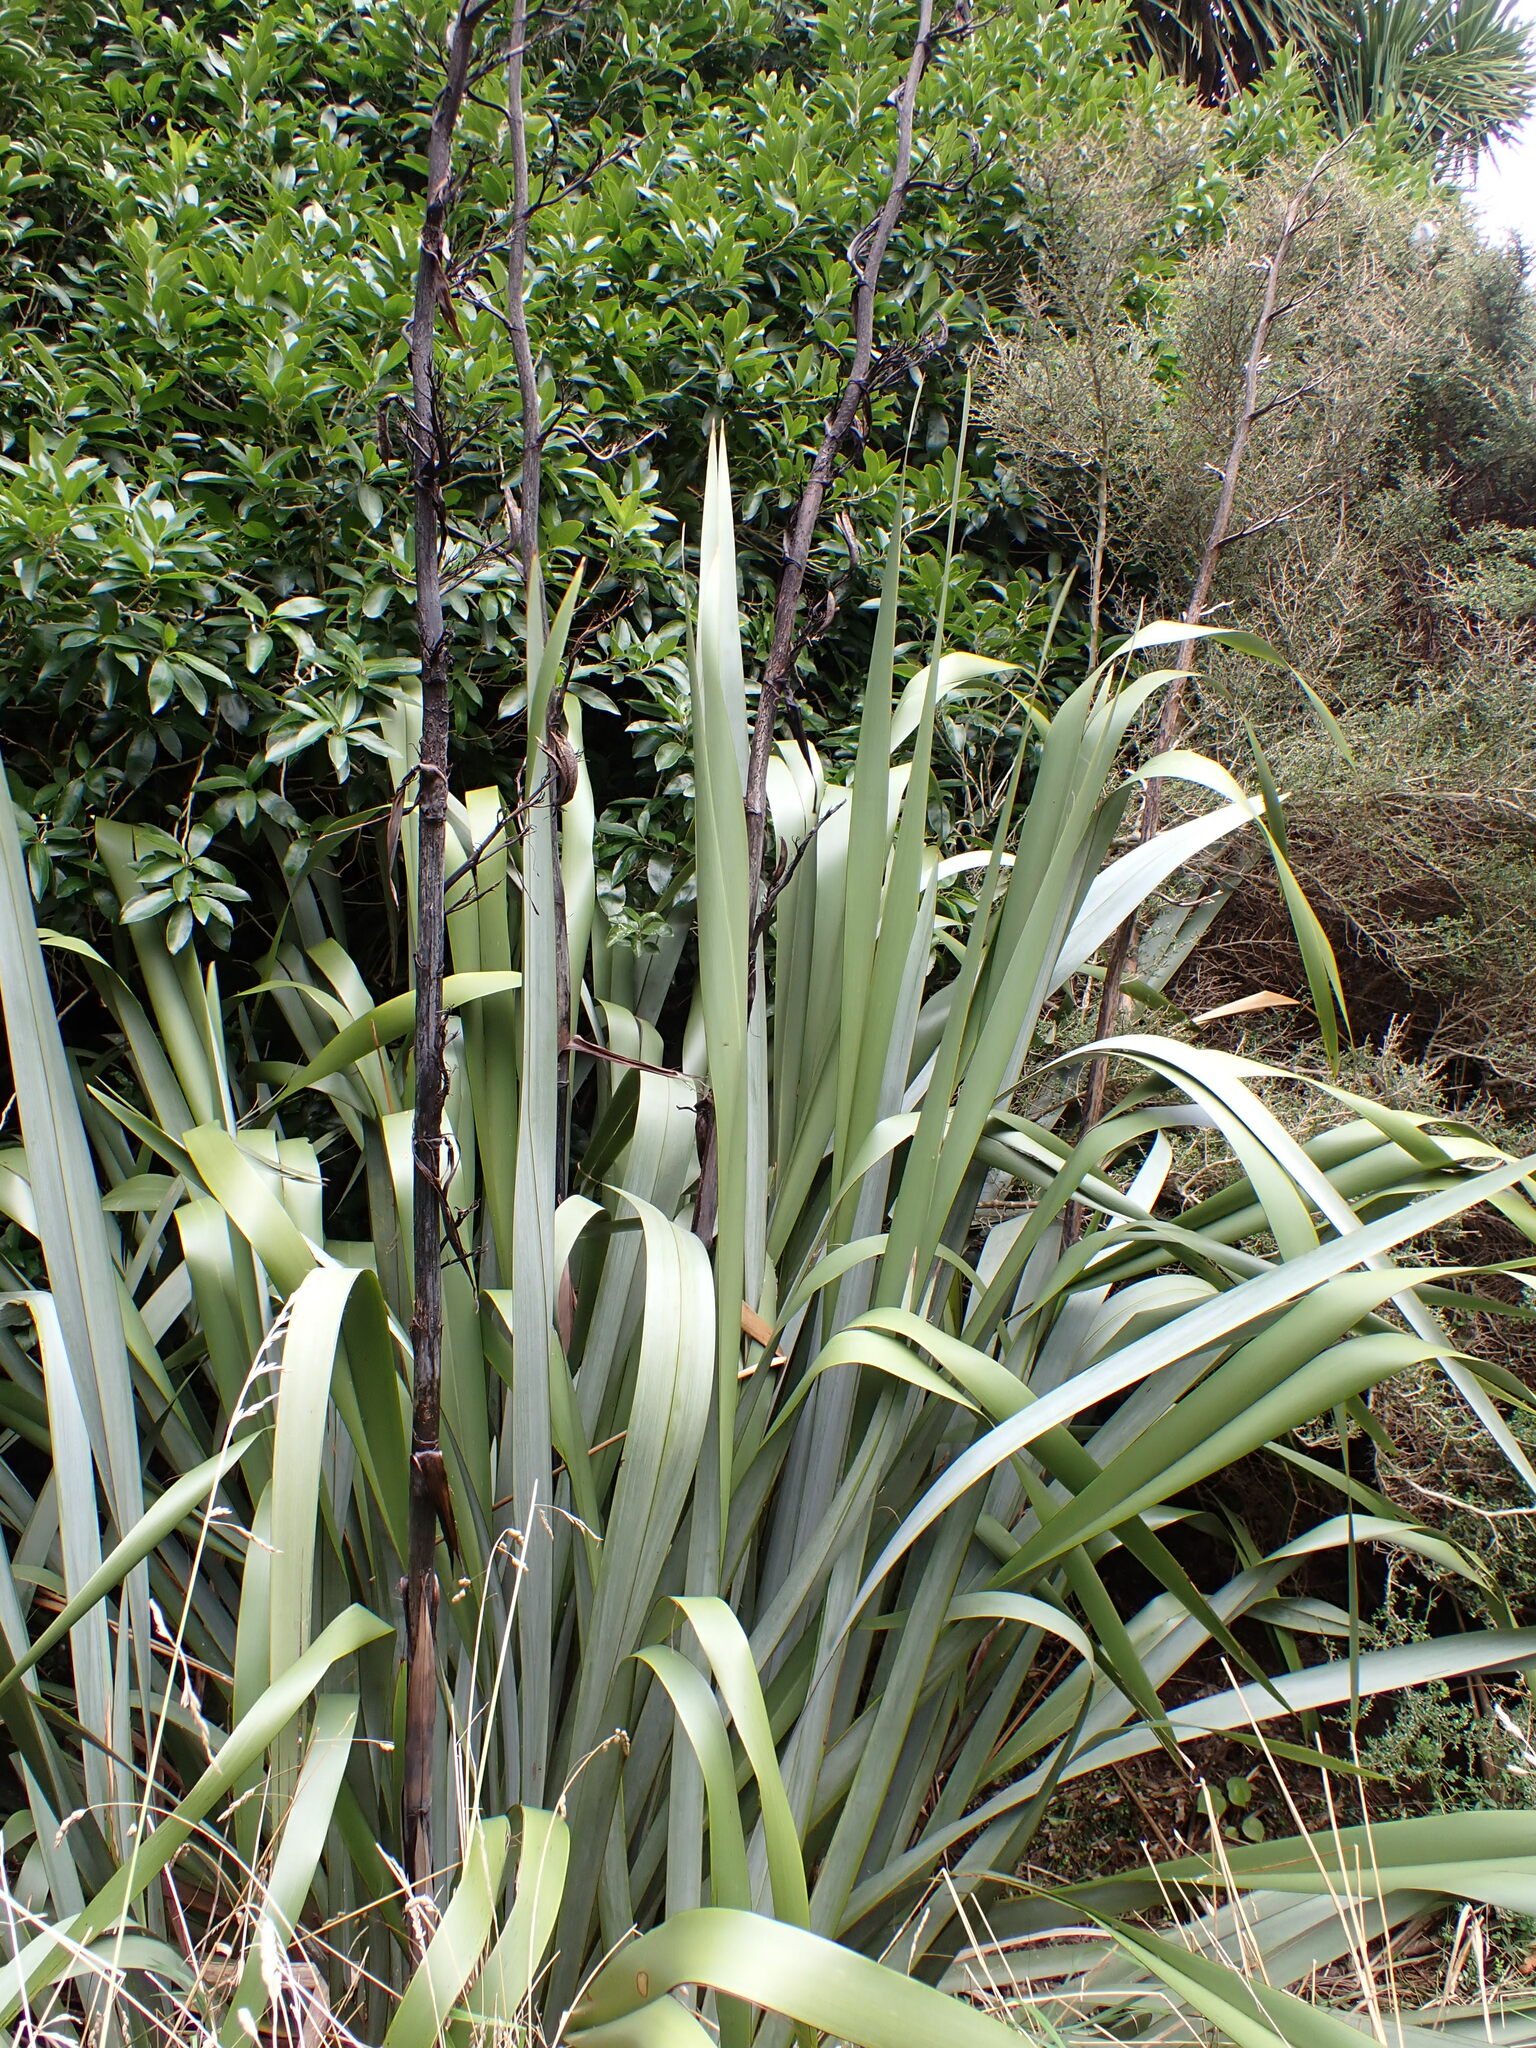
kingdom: Plantae
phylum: Tracheophyta
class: Liliopsida
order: Asparagales
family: Asphodelaceae
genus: Phormium
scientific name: Phormium tenax
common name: New zealand flax
